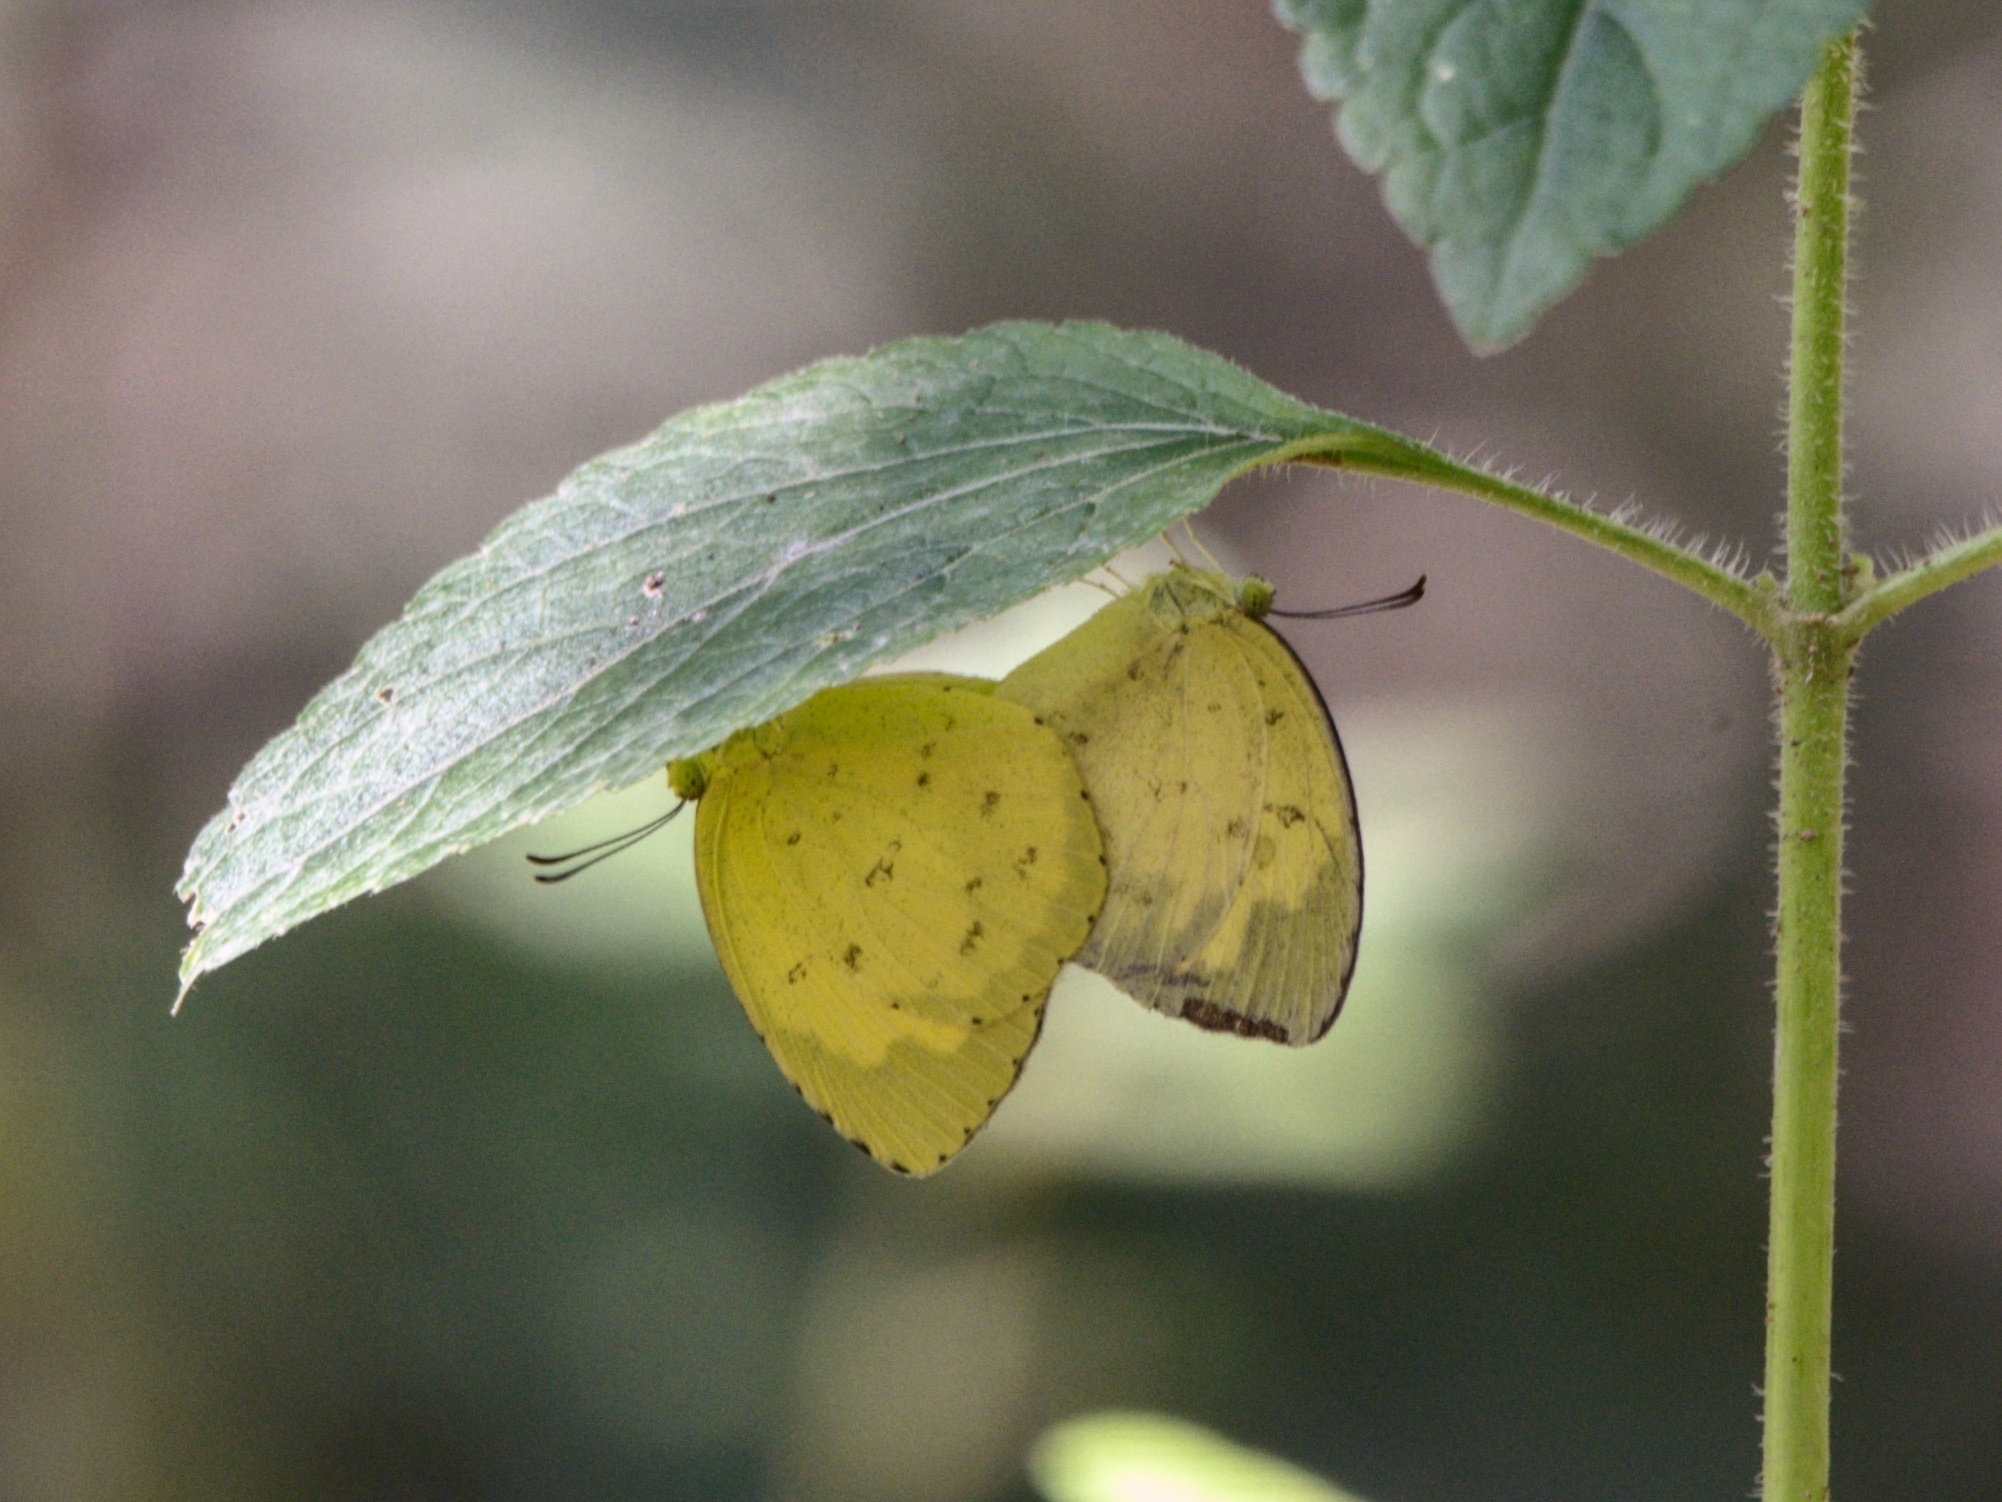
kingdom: Animalia
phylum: Arthropoda
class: Insecta
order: Lepidoptera
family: Pieridae
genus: Eurema
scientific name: Eurema blanda
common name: Three-spot grass yellow
